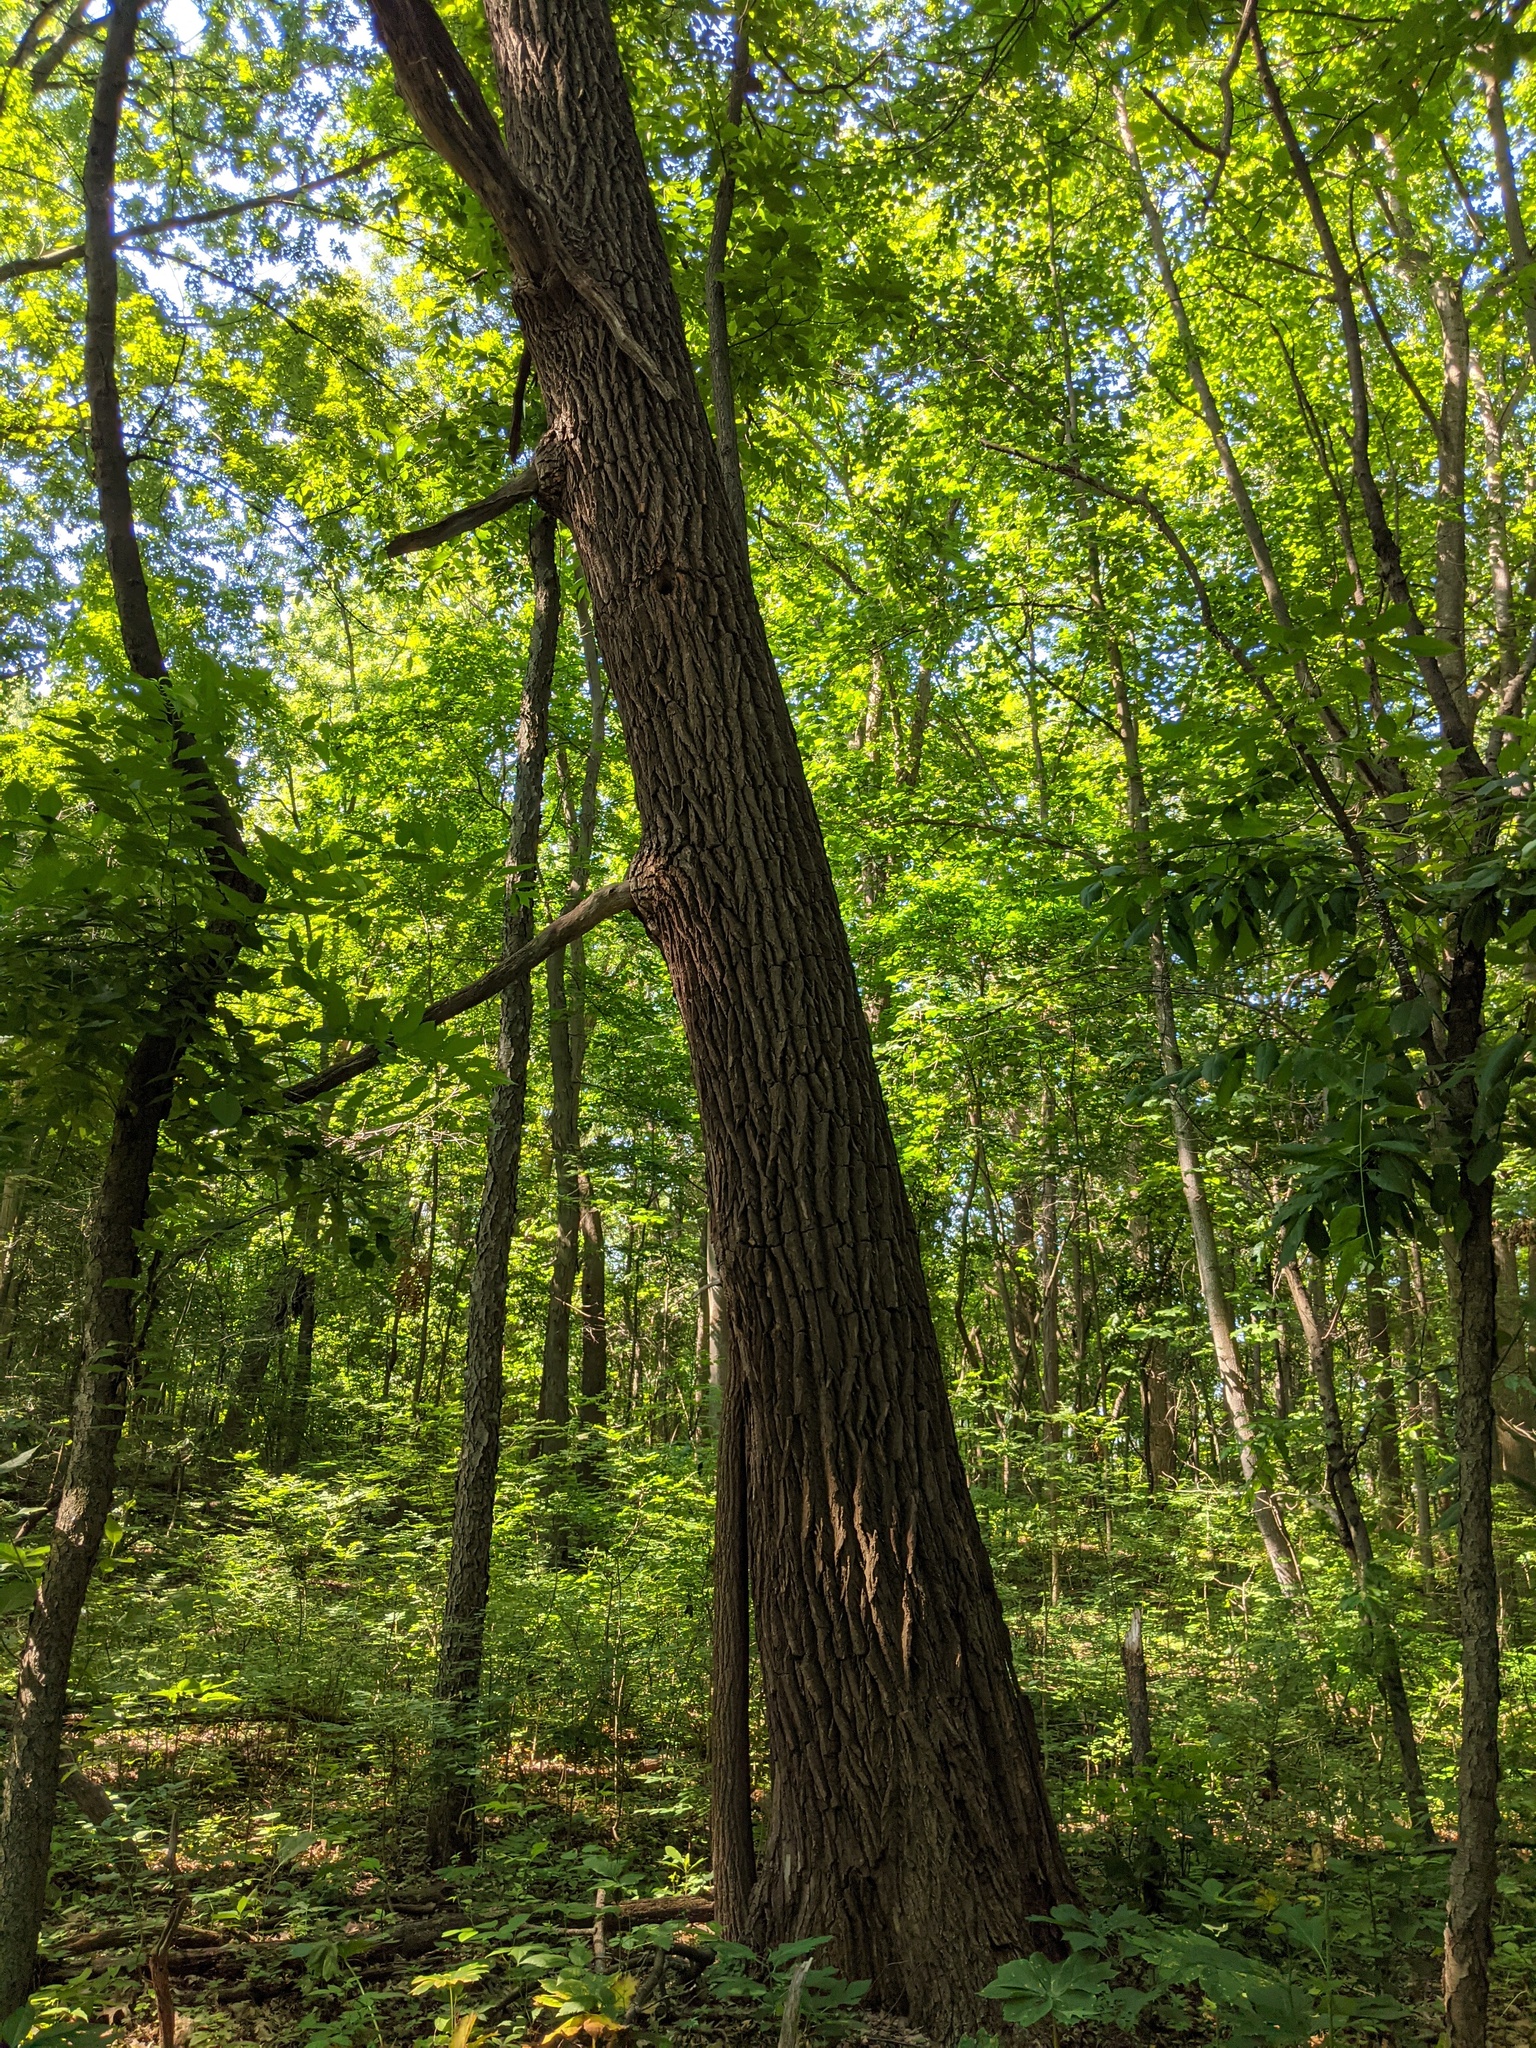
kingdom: Plantae
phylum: Tracheophyta
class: Magnoliopsida
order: Laurales
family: Lauraceae
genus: Sassafras
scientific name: Sassafras albidum
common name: Sassafras
